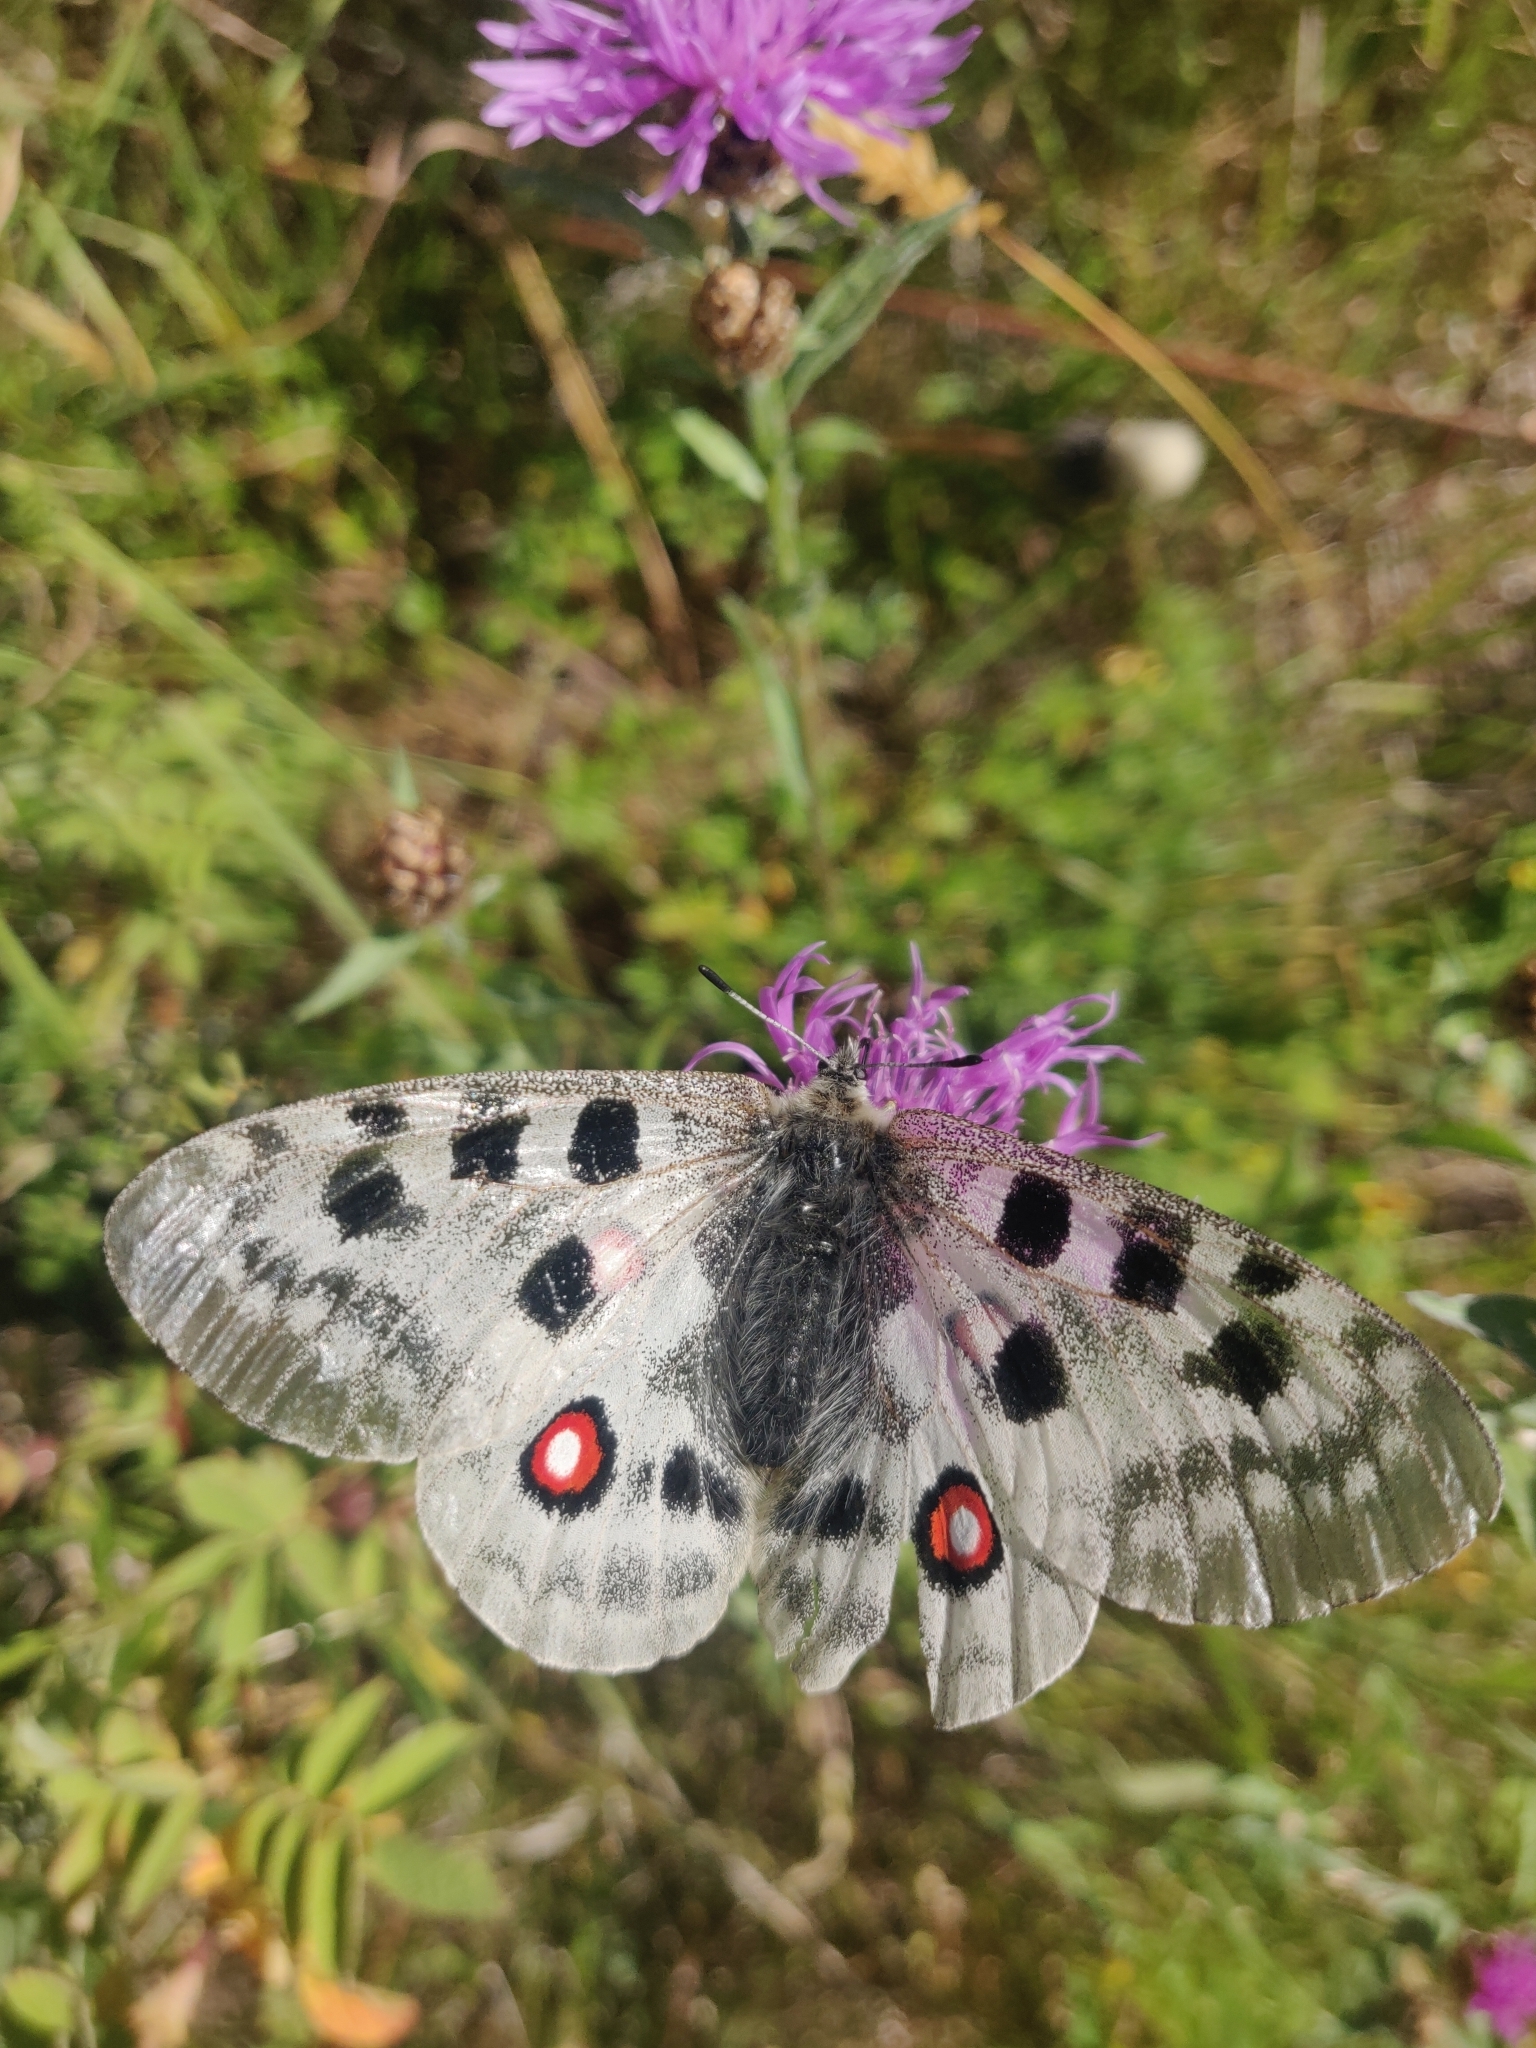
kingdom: Animalia
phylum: Arthropoda
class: Insecta
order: Lepidoptera
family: Papilionidae
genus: Parnassius
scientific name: Parnassius apollo
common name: Apollo
